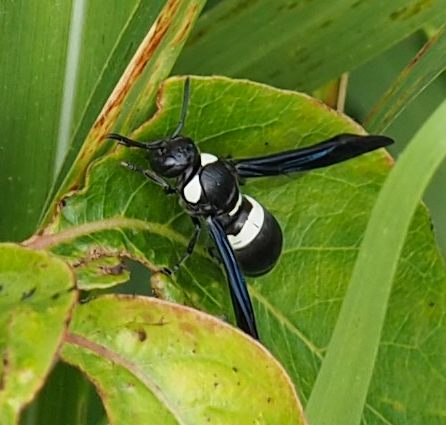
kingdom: Animalia
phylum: Arthropoda
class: Insecta
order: Hymenoptera
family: Eumenidae
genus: Monobia
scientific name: Monobia quadridens
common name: Four-toothed mason wasp
